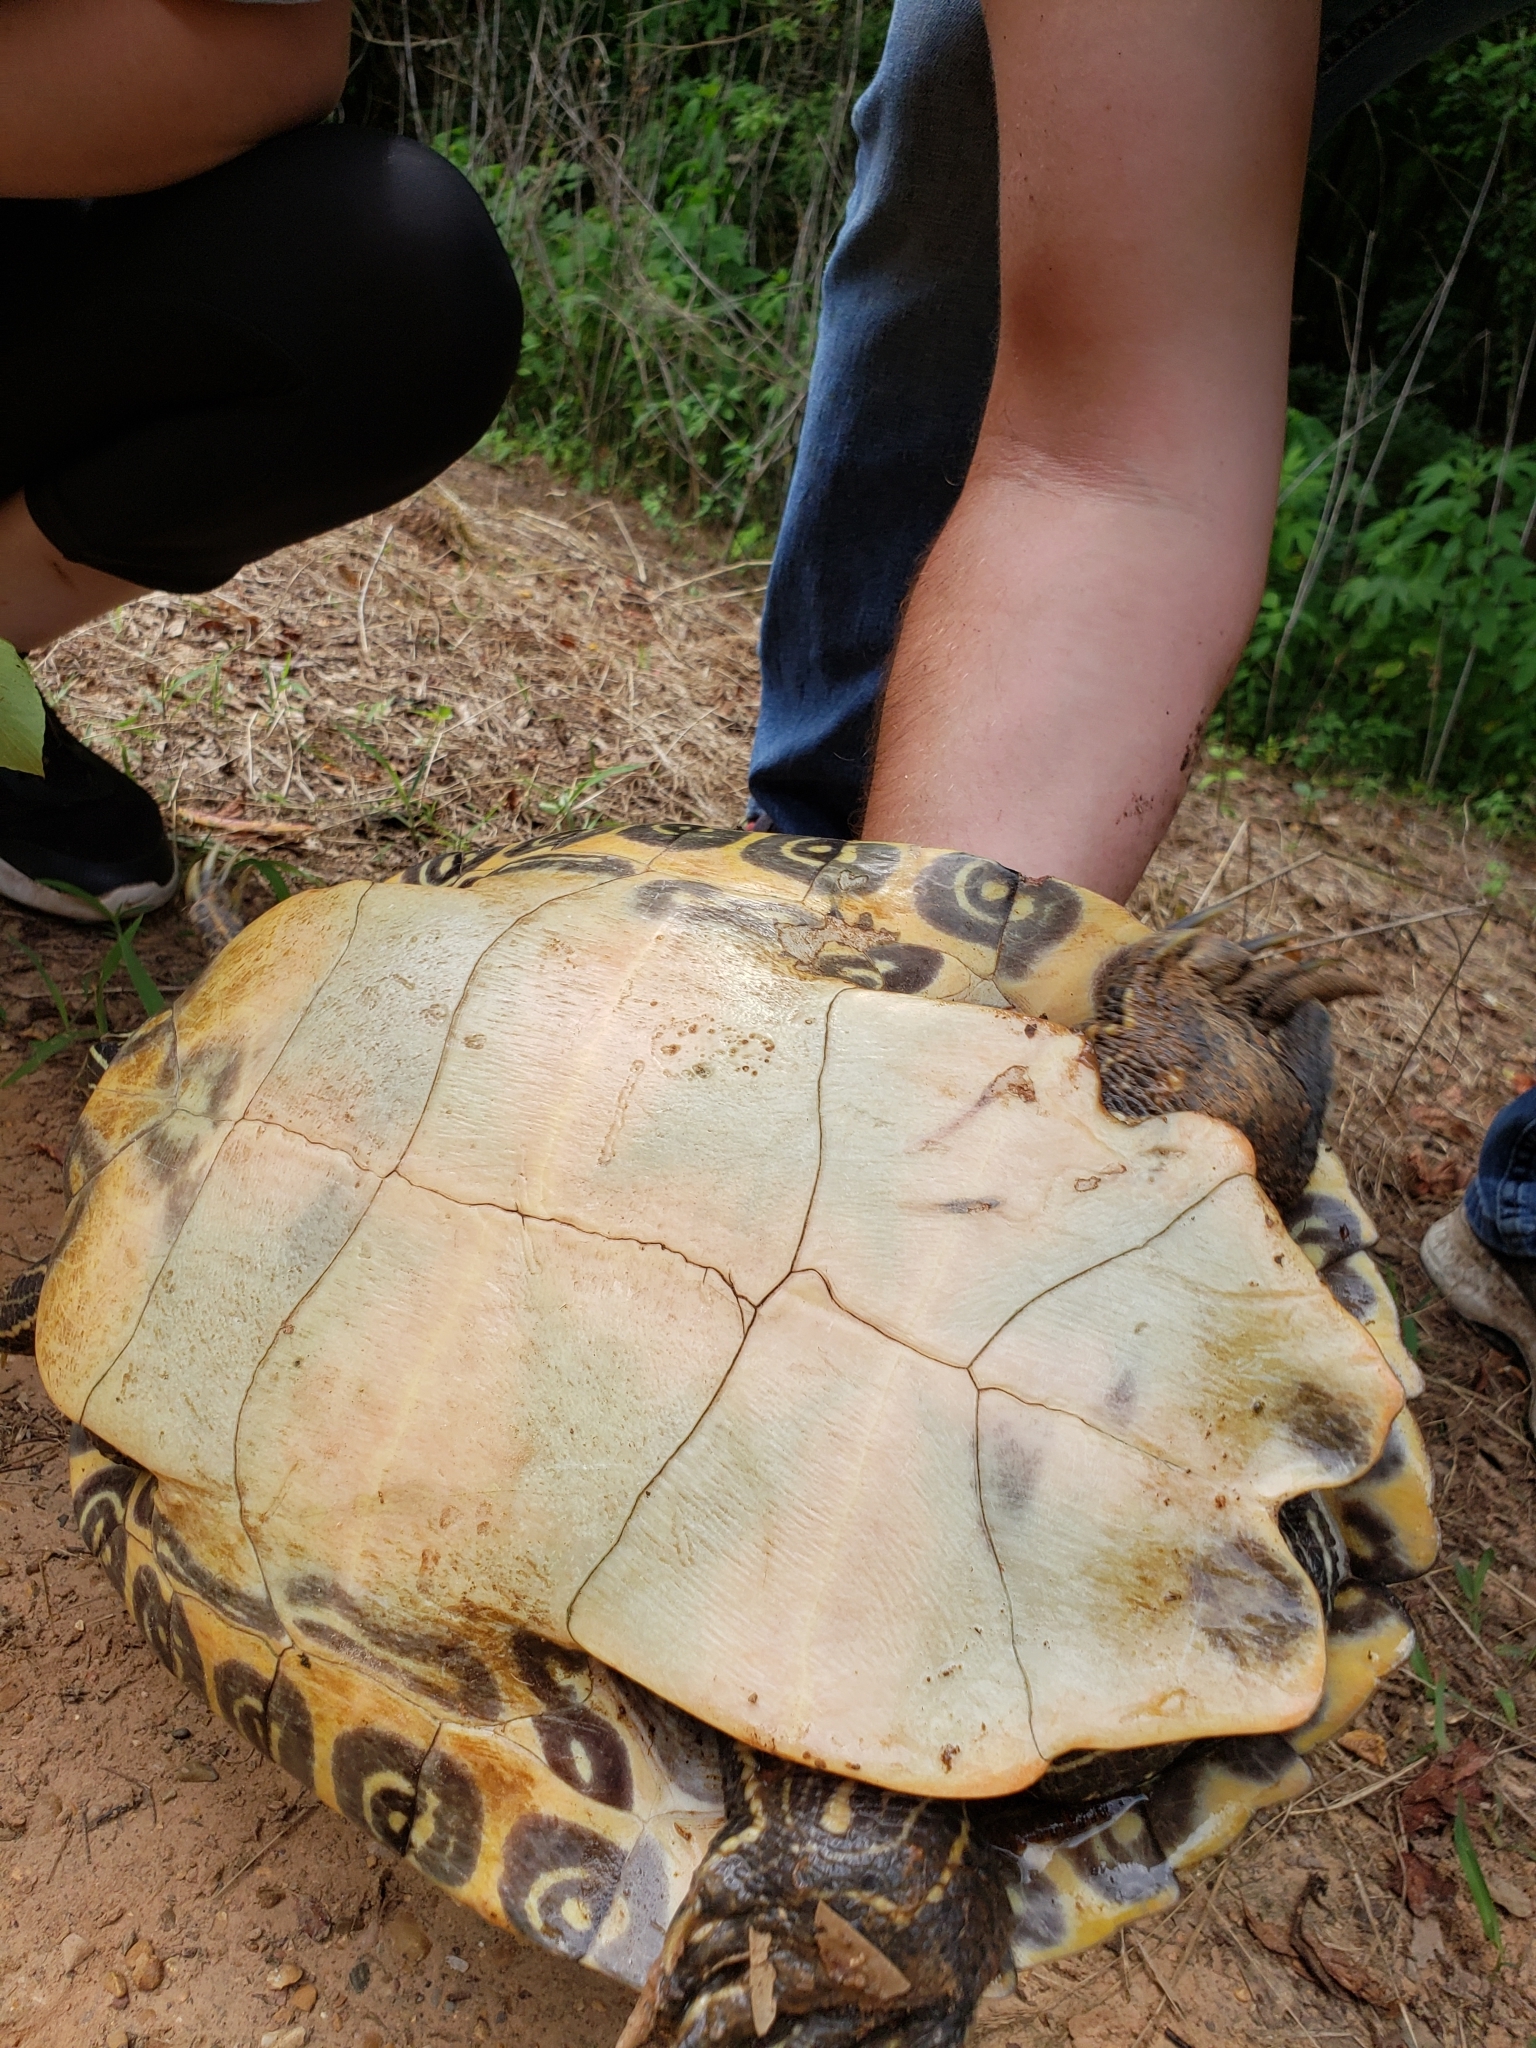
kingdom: Animalia
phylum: Chordata
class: Testudines
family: Emydidae
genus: Pseudemys
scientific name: Pseudemys concinna
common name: Eastern river cooter
